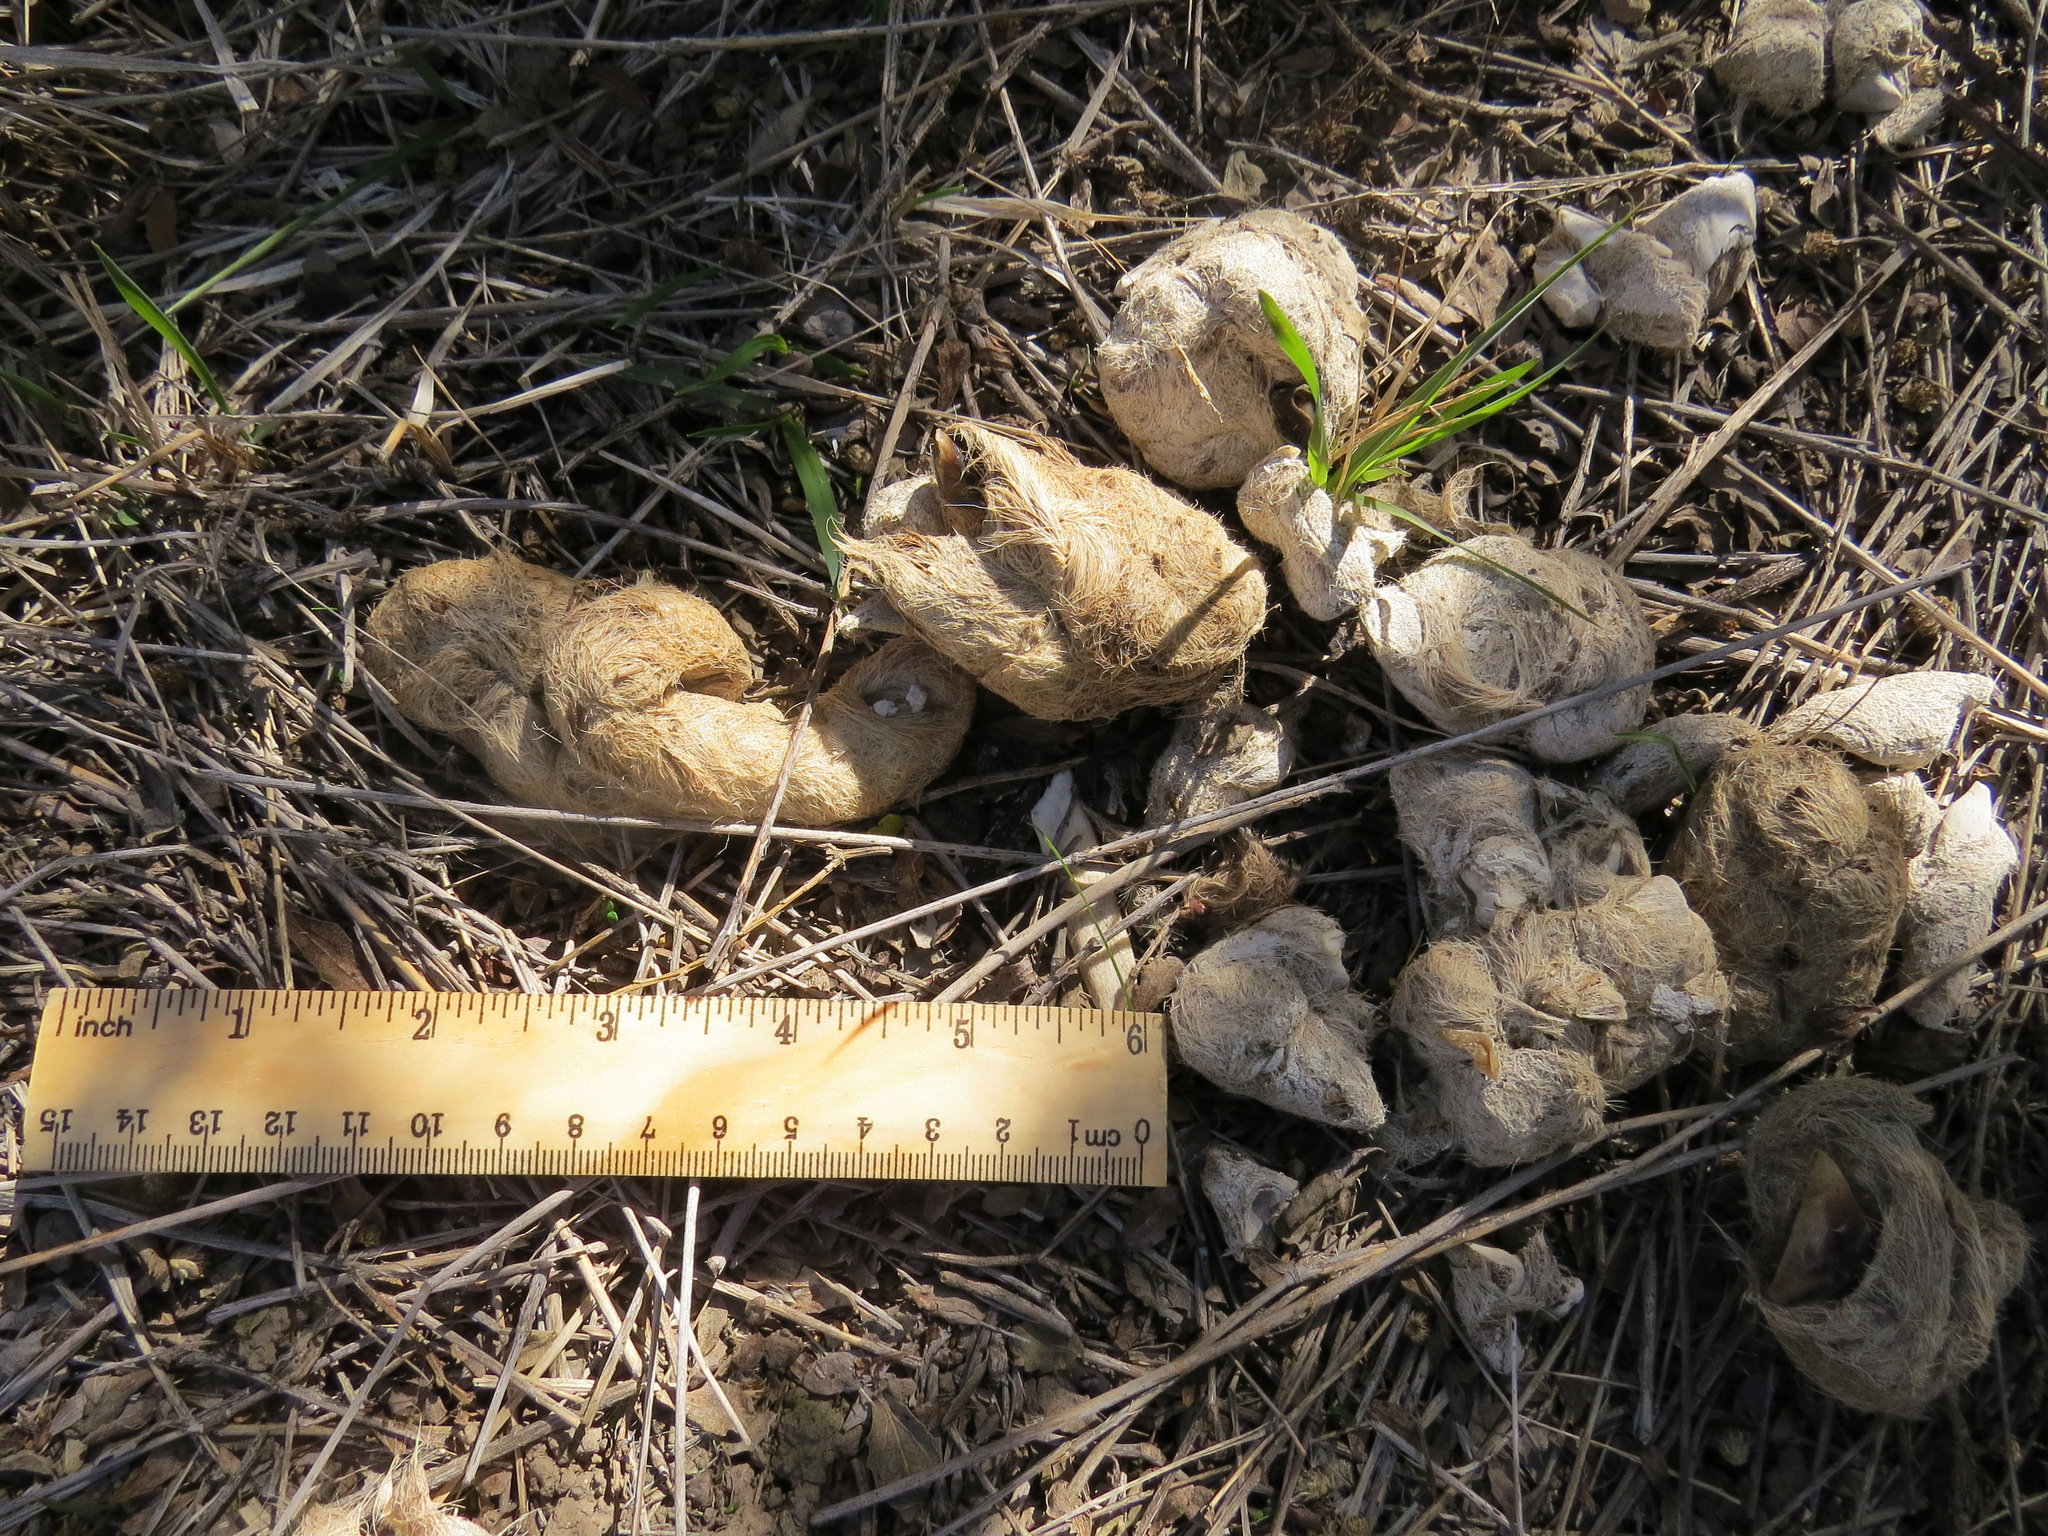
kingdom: Animalia
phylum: Chordata
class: Mammalia
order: Carnivora
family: Felidae
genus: Puma
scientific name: Puma concolor
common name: Puma
